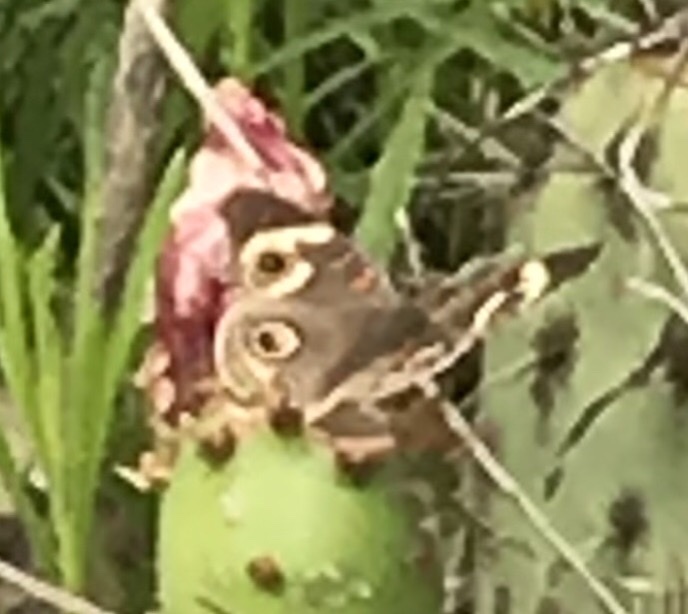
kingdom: Animalia
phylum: Arthropoda
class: Insecta
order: Lepidoptera
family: Nymphalidae
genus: Junonia
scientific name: Junonia grisea
